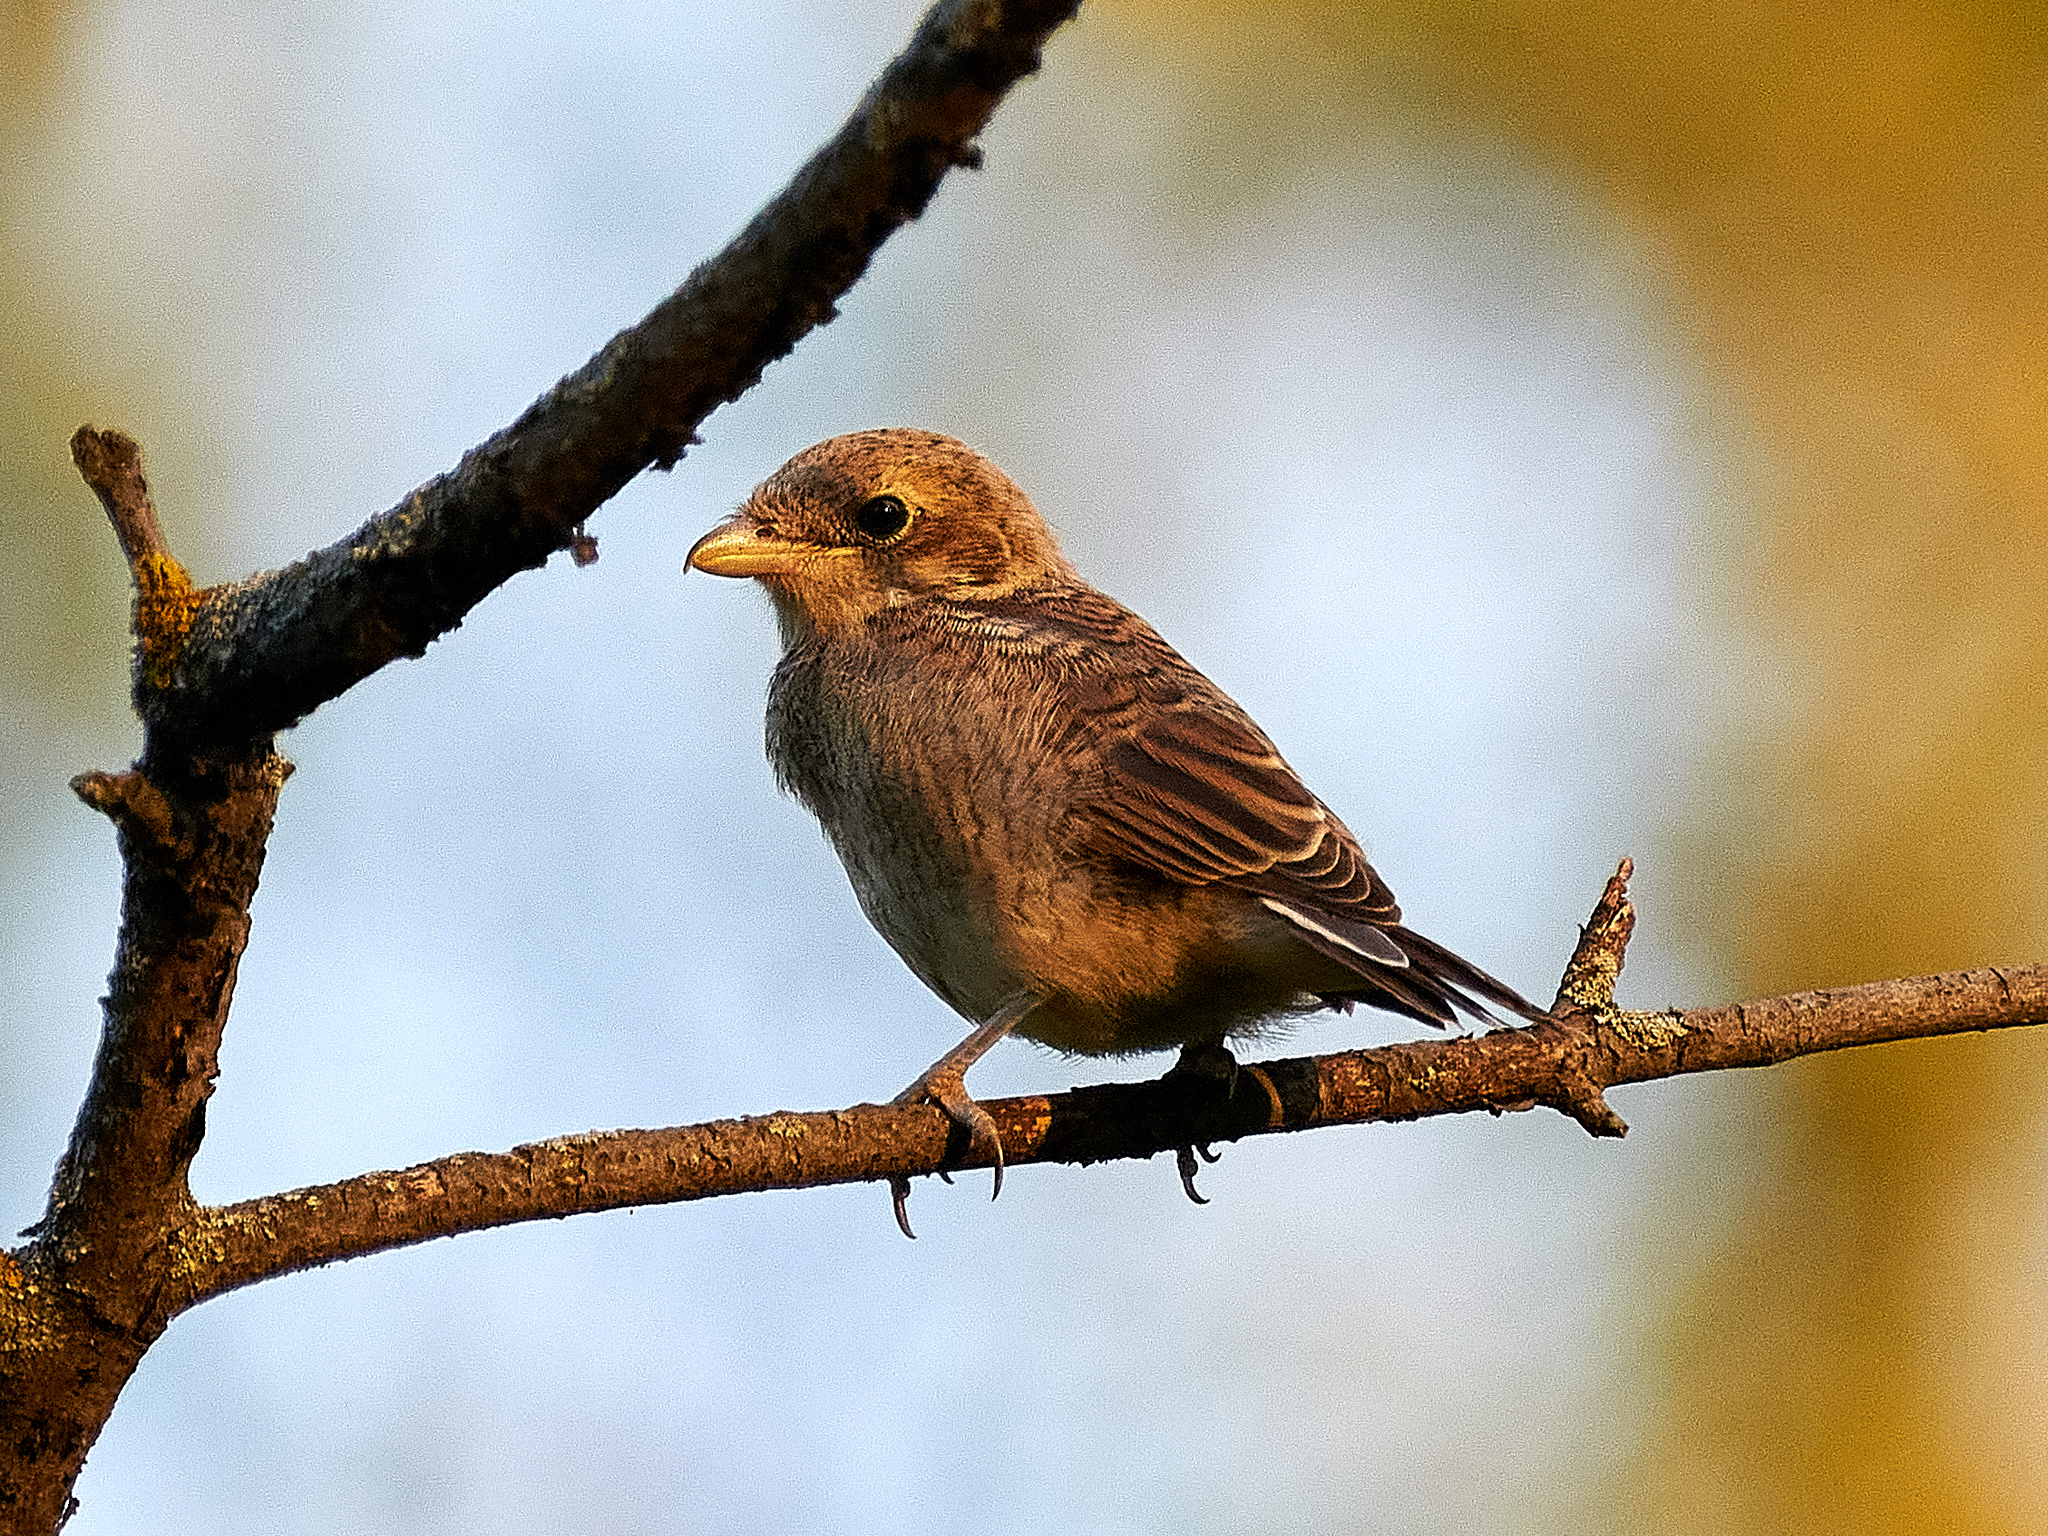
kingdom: Animalia
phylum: Chordata
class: Aves
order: Passeriformes
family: Laniidae
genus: Lanius
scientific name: Lanius collurio
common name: Red-backed shrike
